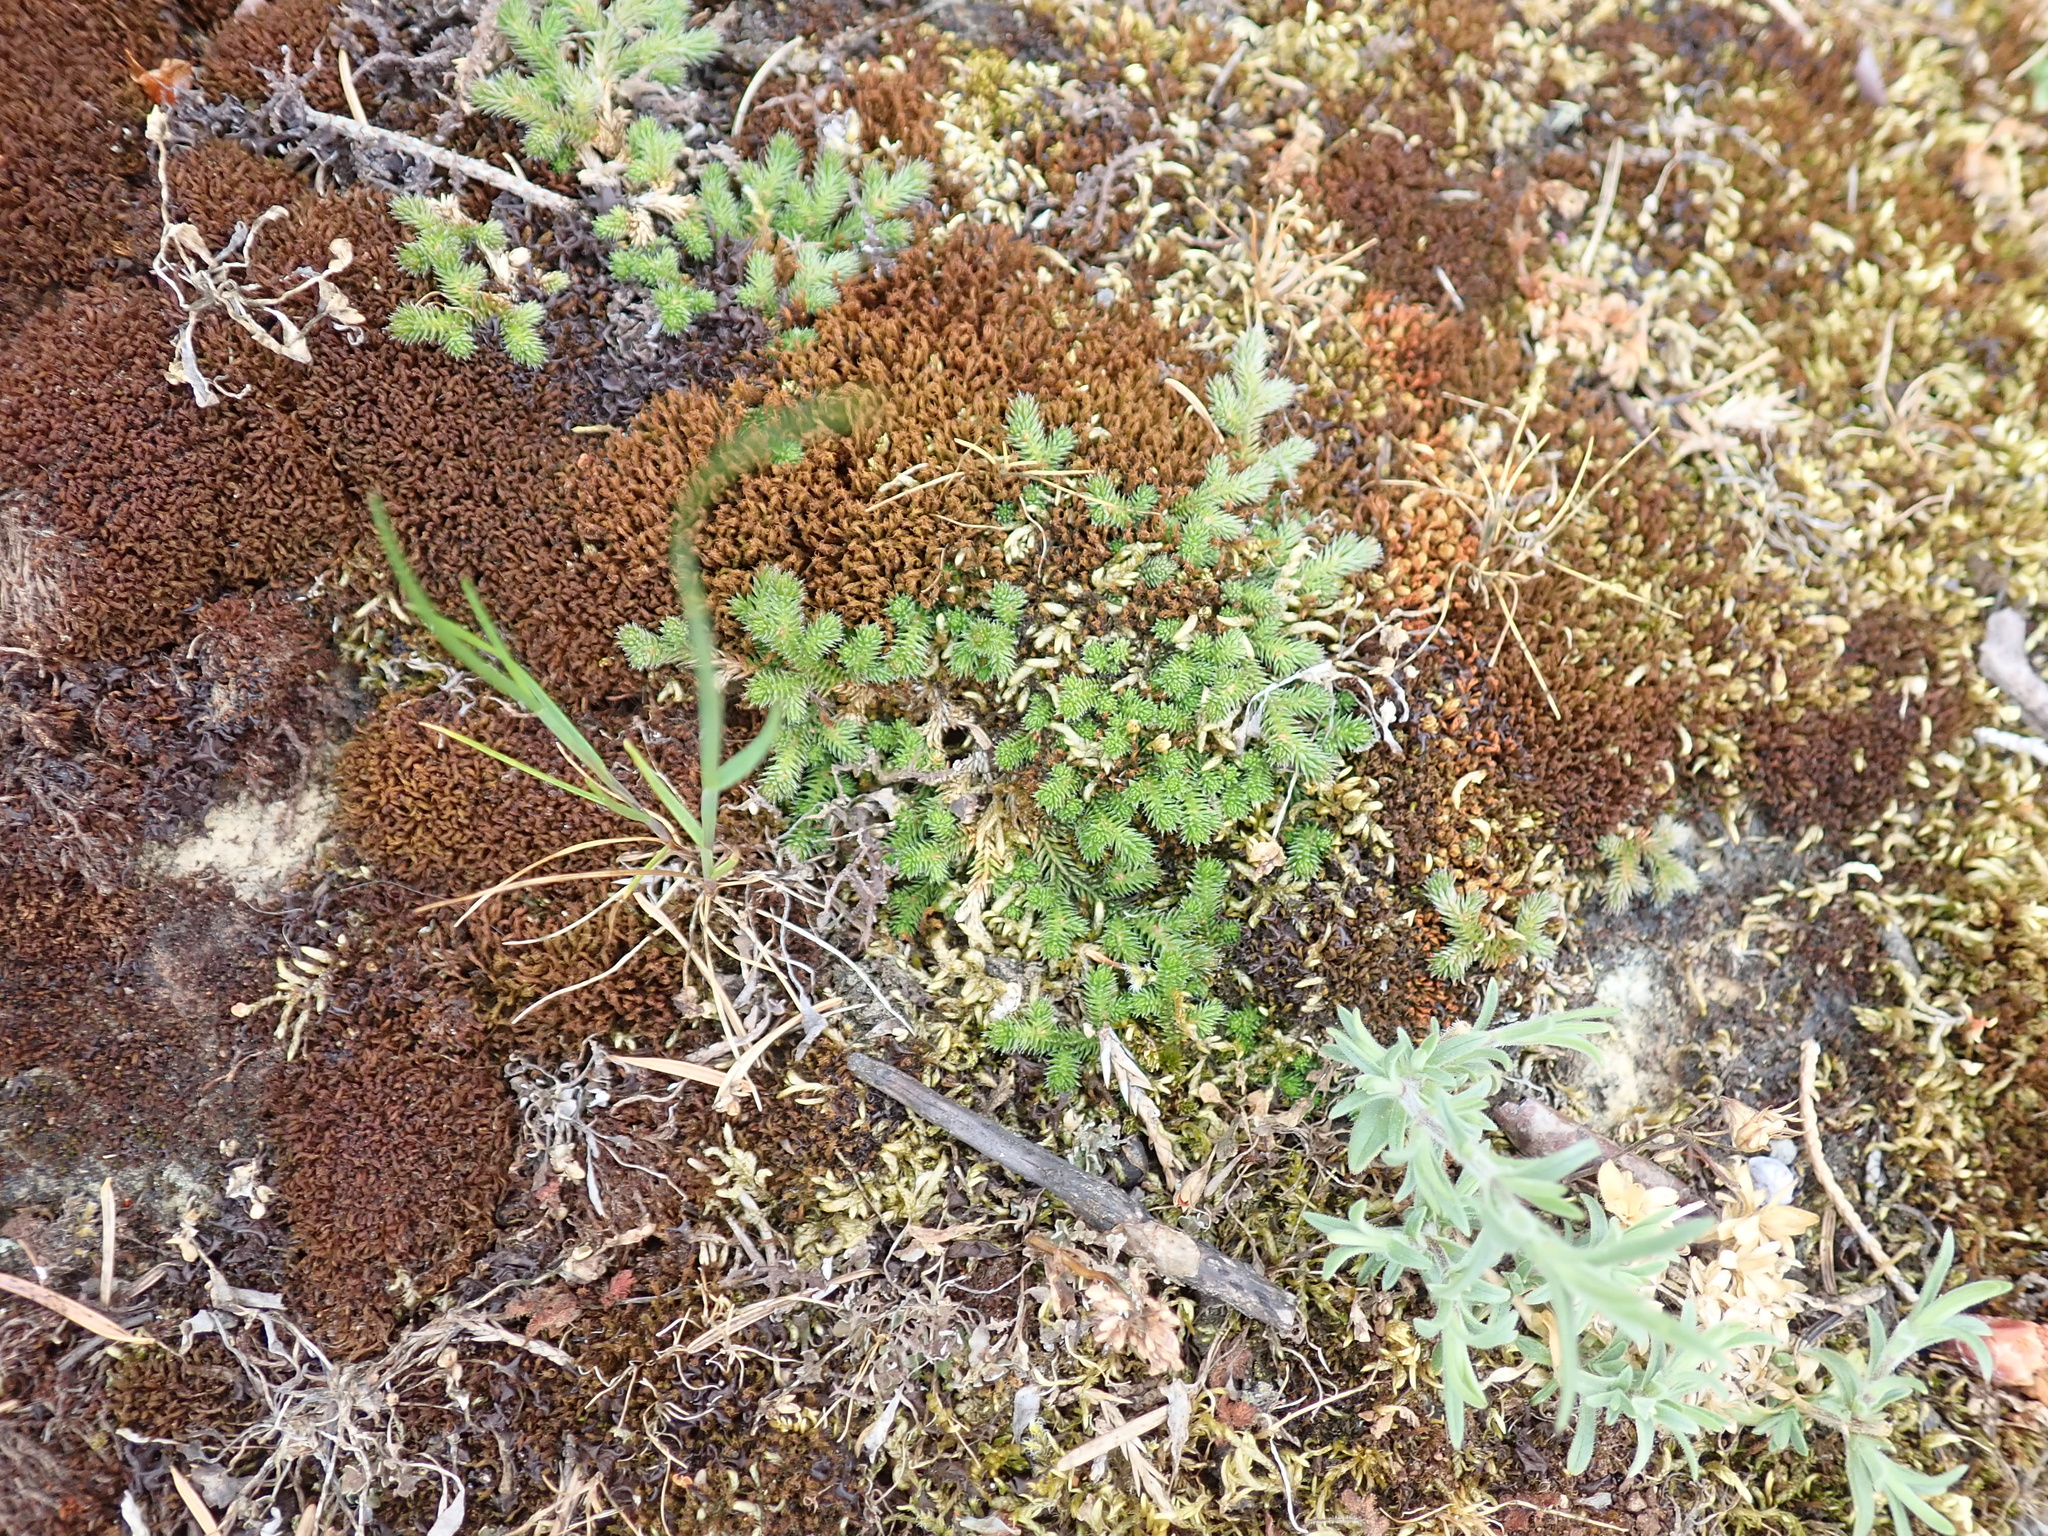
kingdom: Plantae
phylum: Tracheophyta
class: Lycopodiopsida
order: Selaginellales
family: Selaginellaceae
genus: Selaginella
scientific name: Selaginella wallacei
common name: Wallace's selaginella
